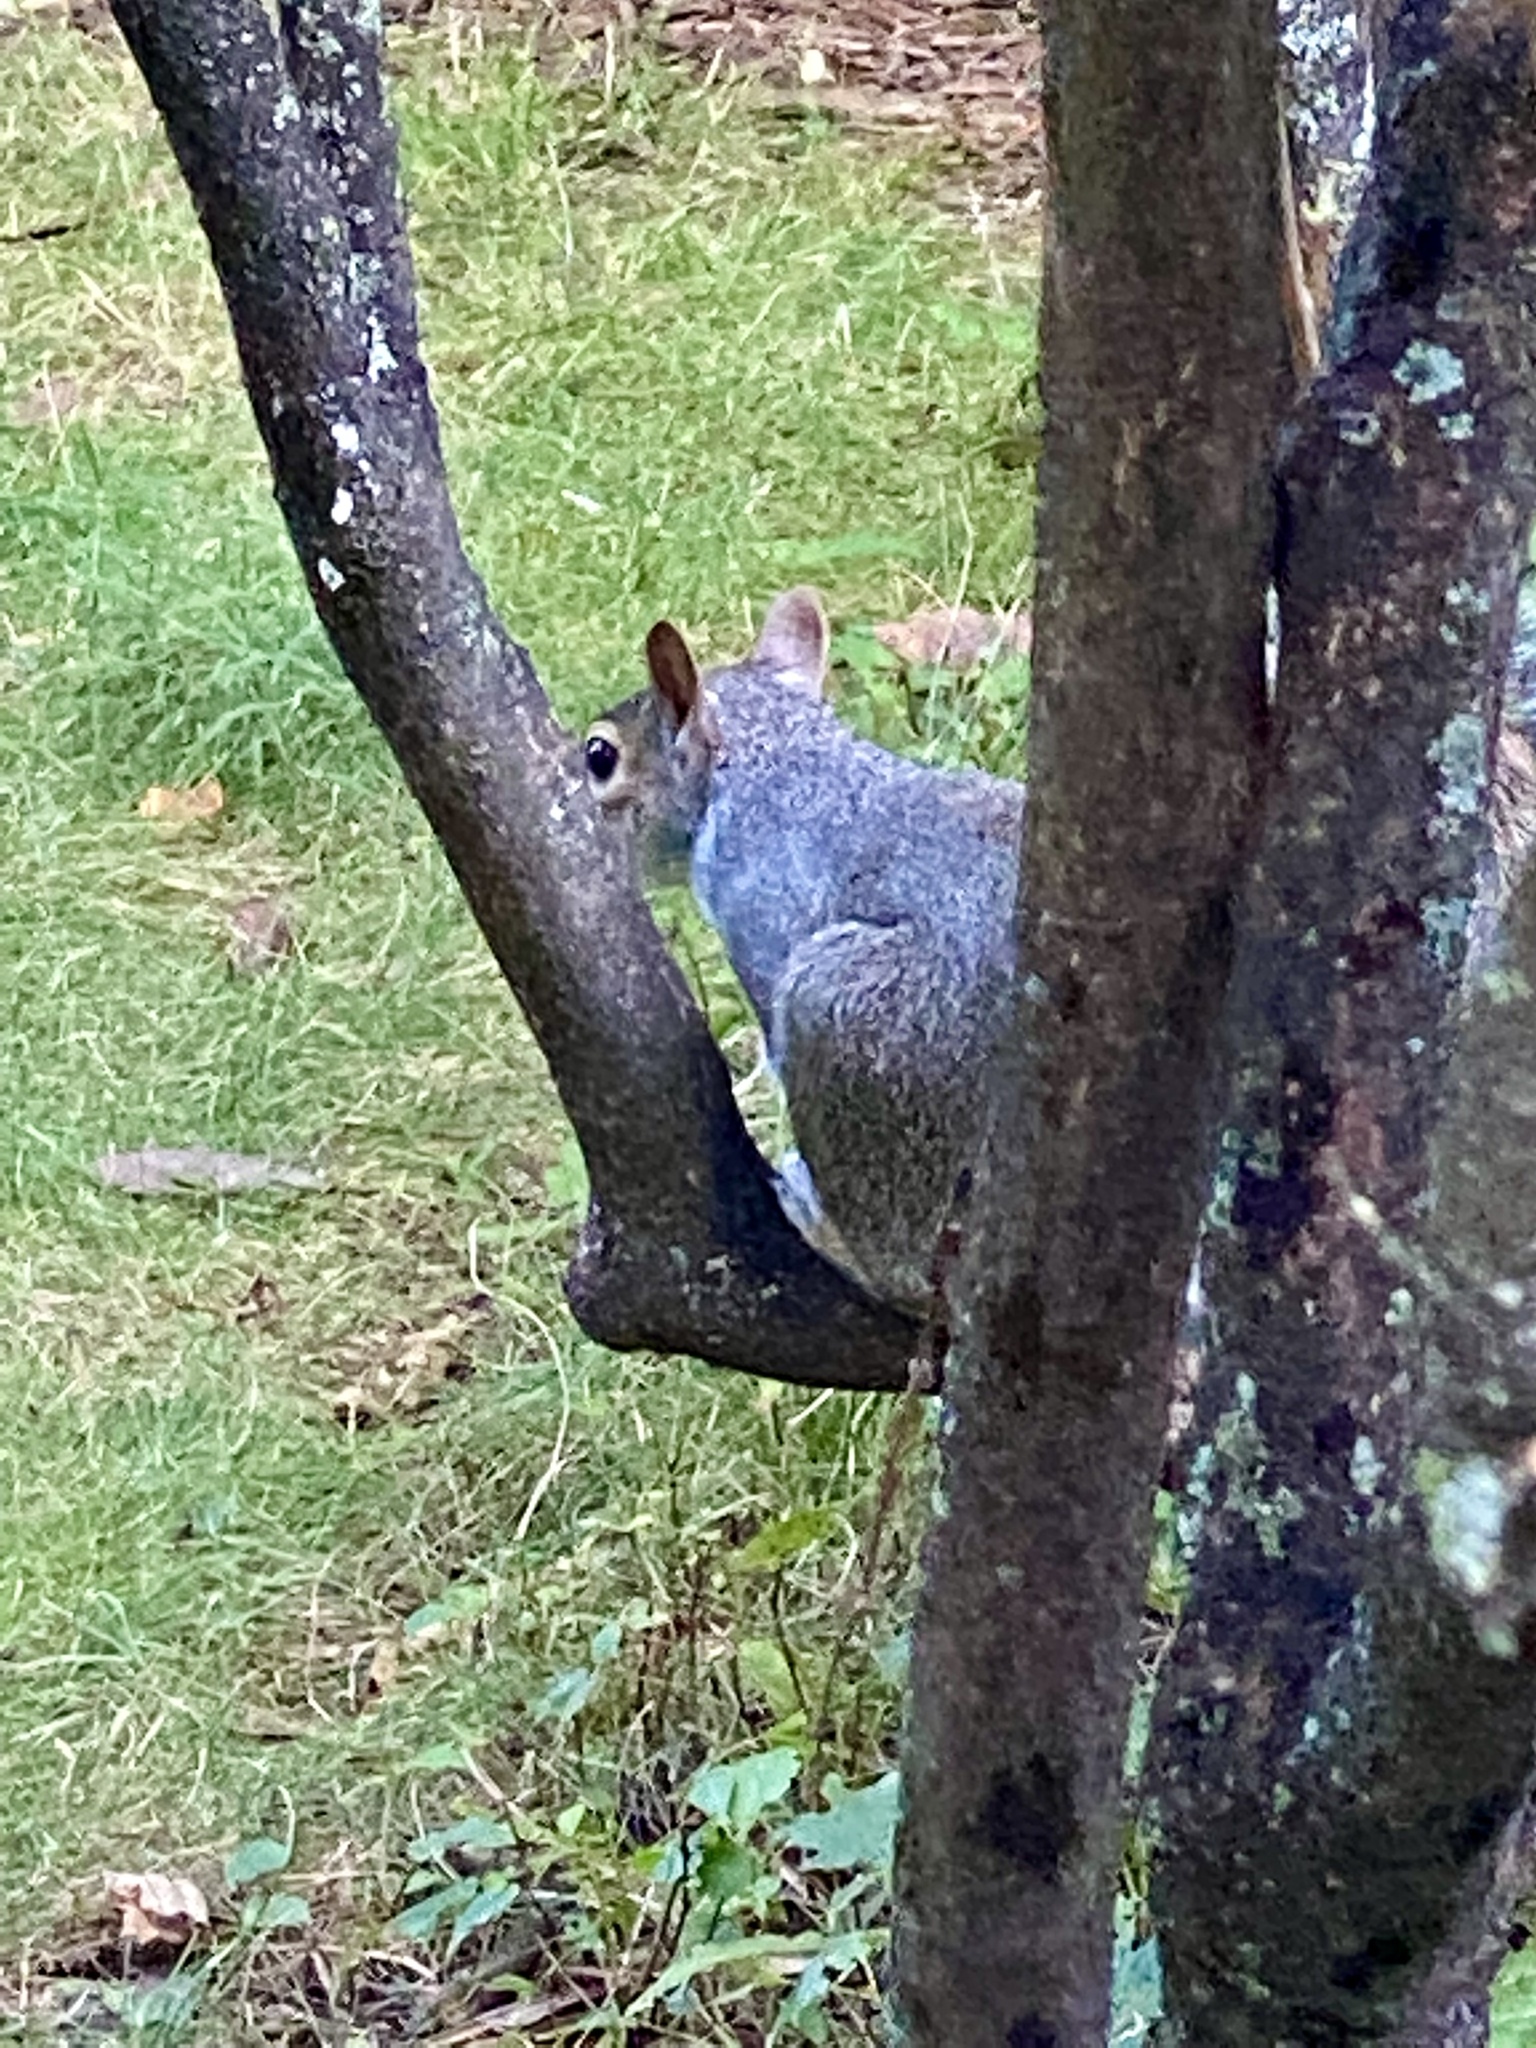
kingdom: Animalia
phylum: Chordata
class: Mammalia
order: Rodentia
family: Sciuridae
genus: Sciurus
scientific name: Sciurus carolinensis
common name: Eastern gray squirrel
